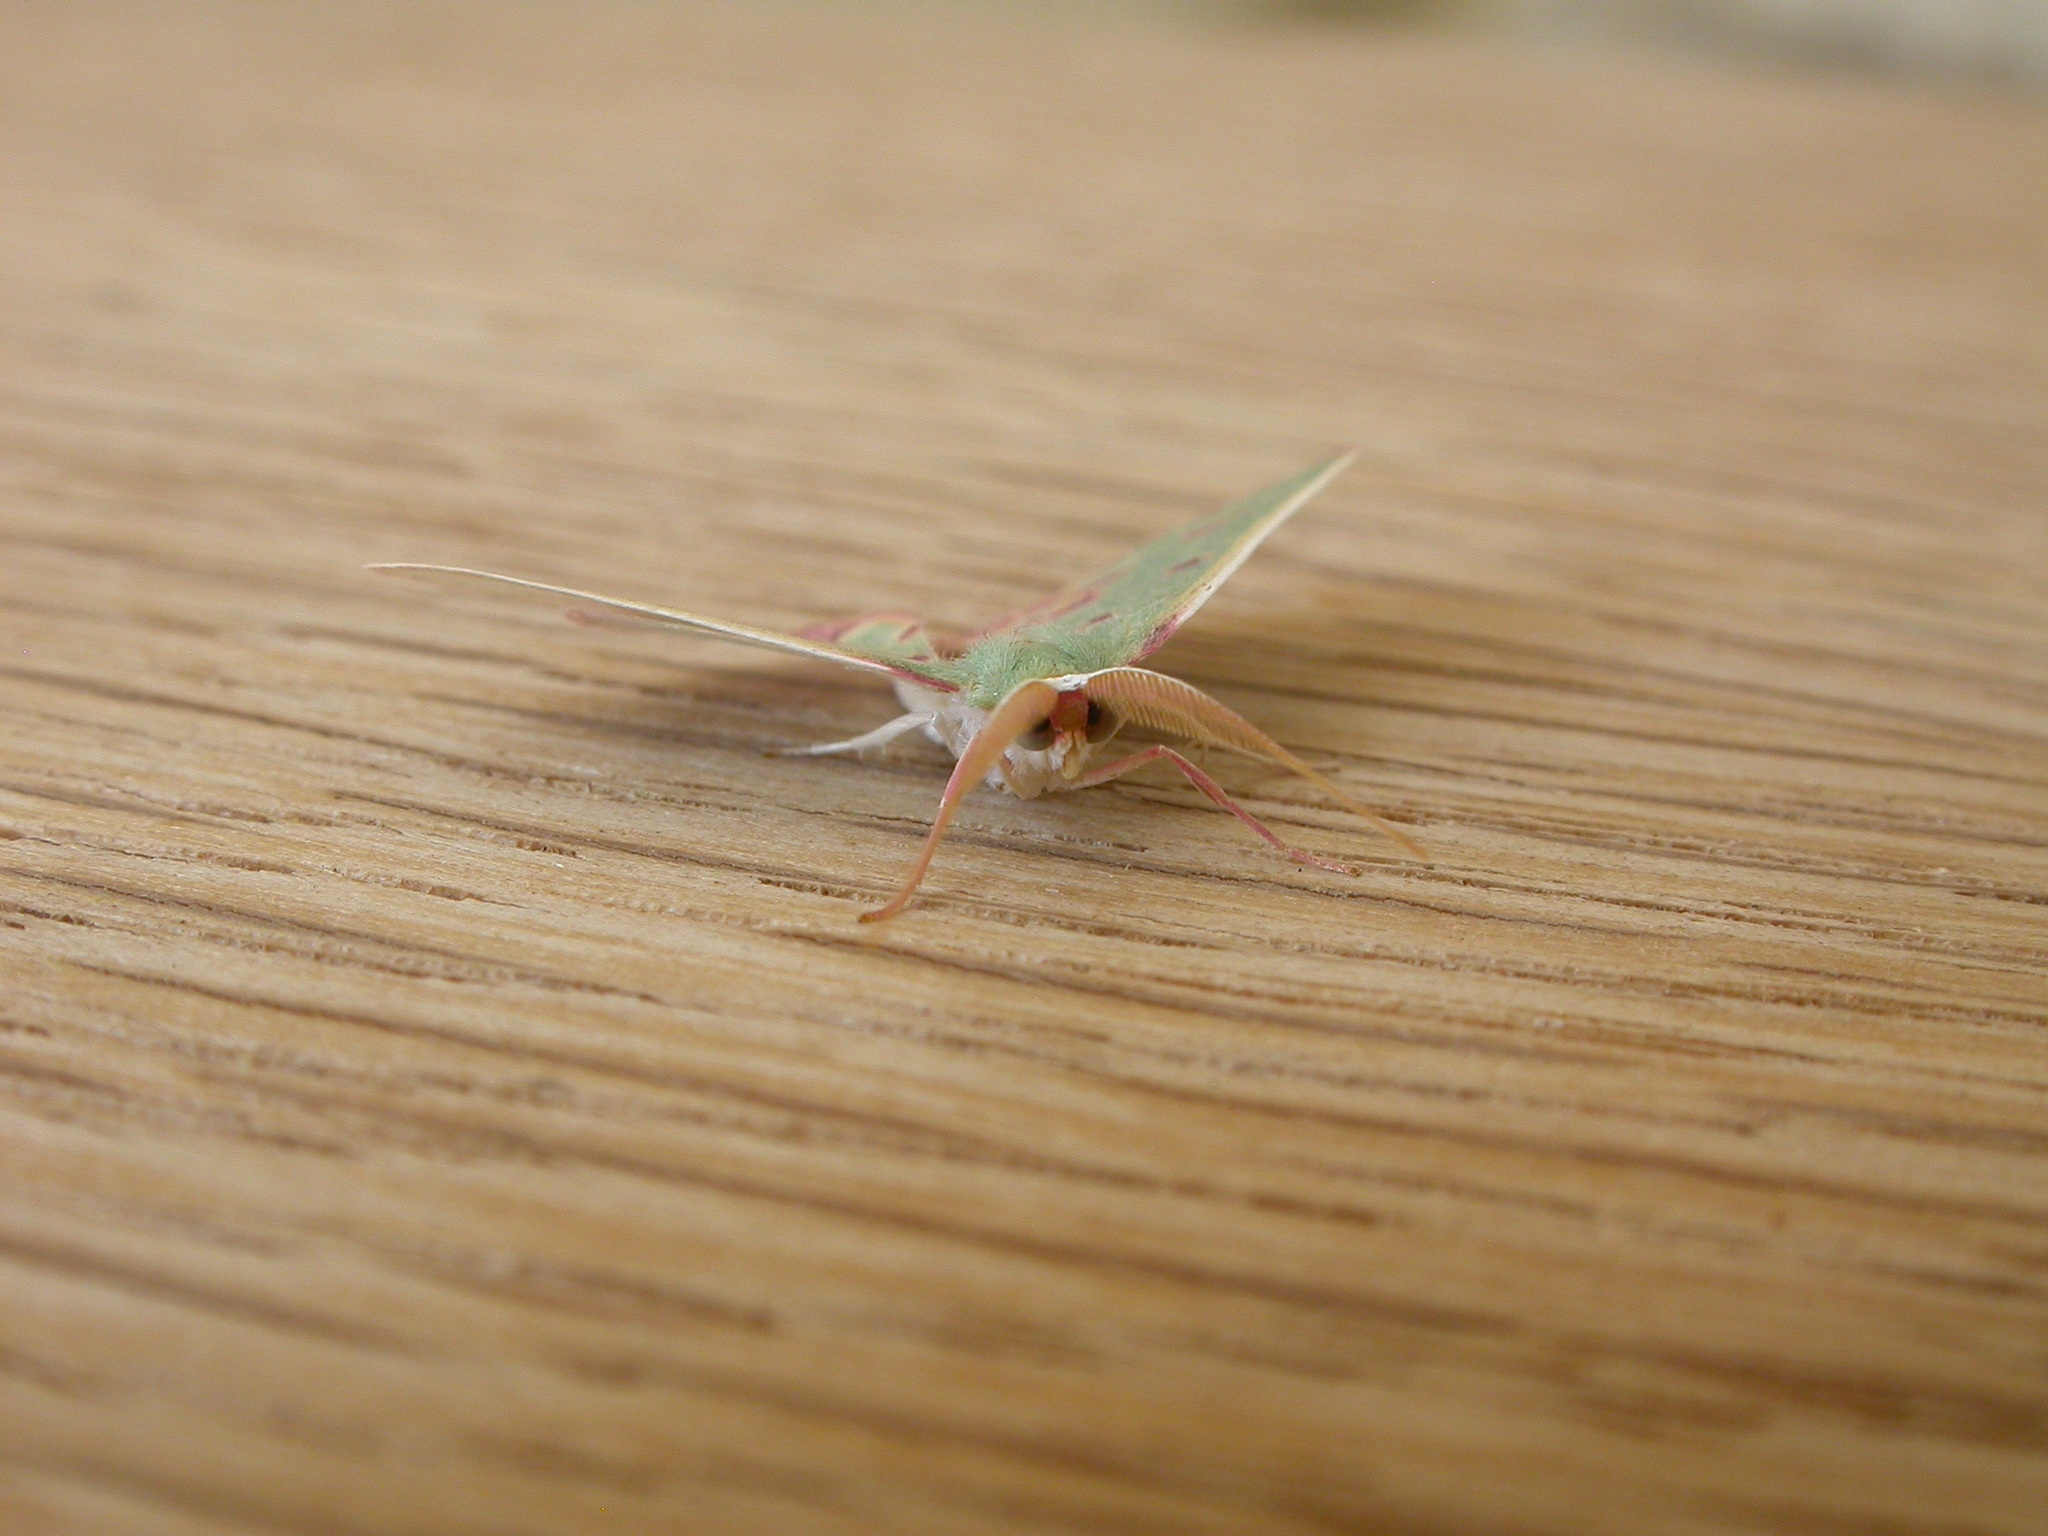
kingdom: Animalia
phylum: Arthropoda
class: Insecta
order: Lepidoptera
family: Geometridae
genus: Prasinocyma
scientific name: Prasinocyma rhodocosma
